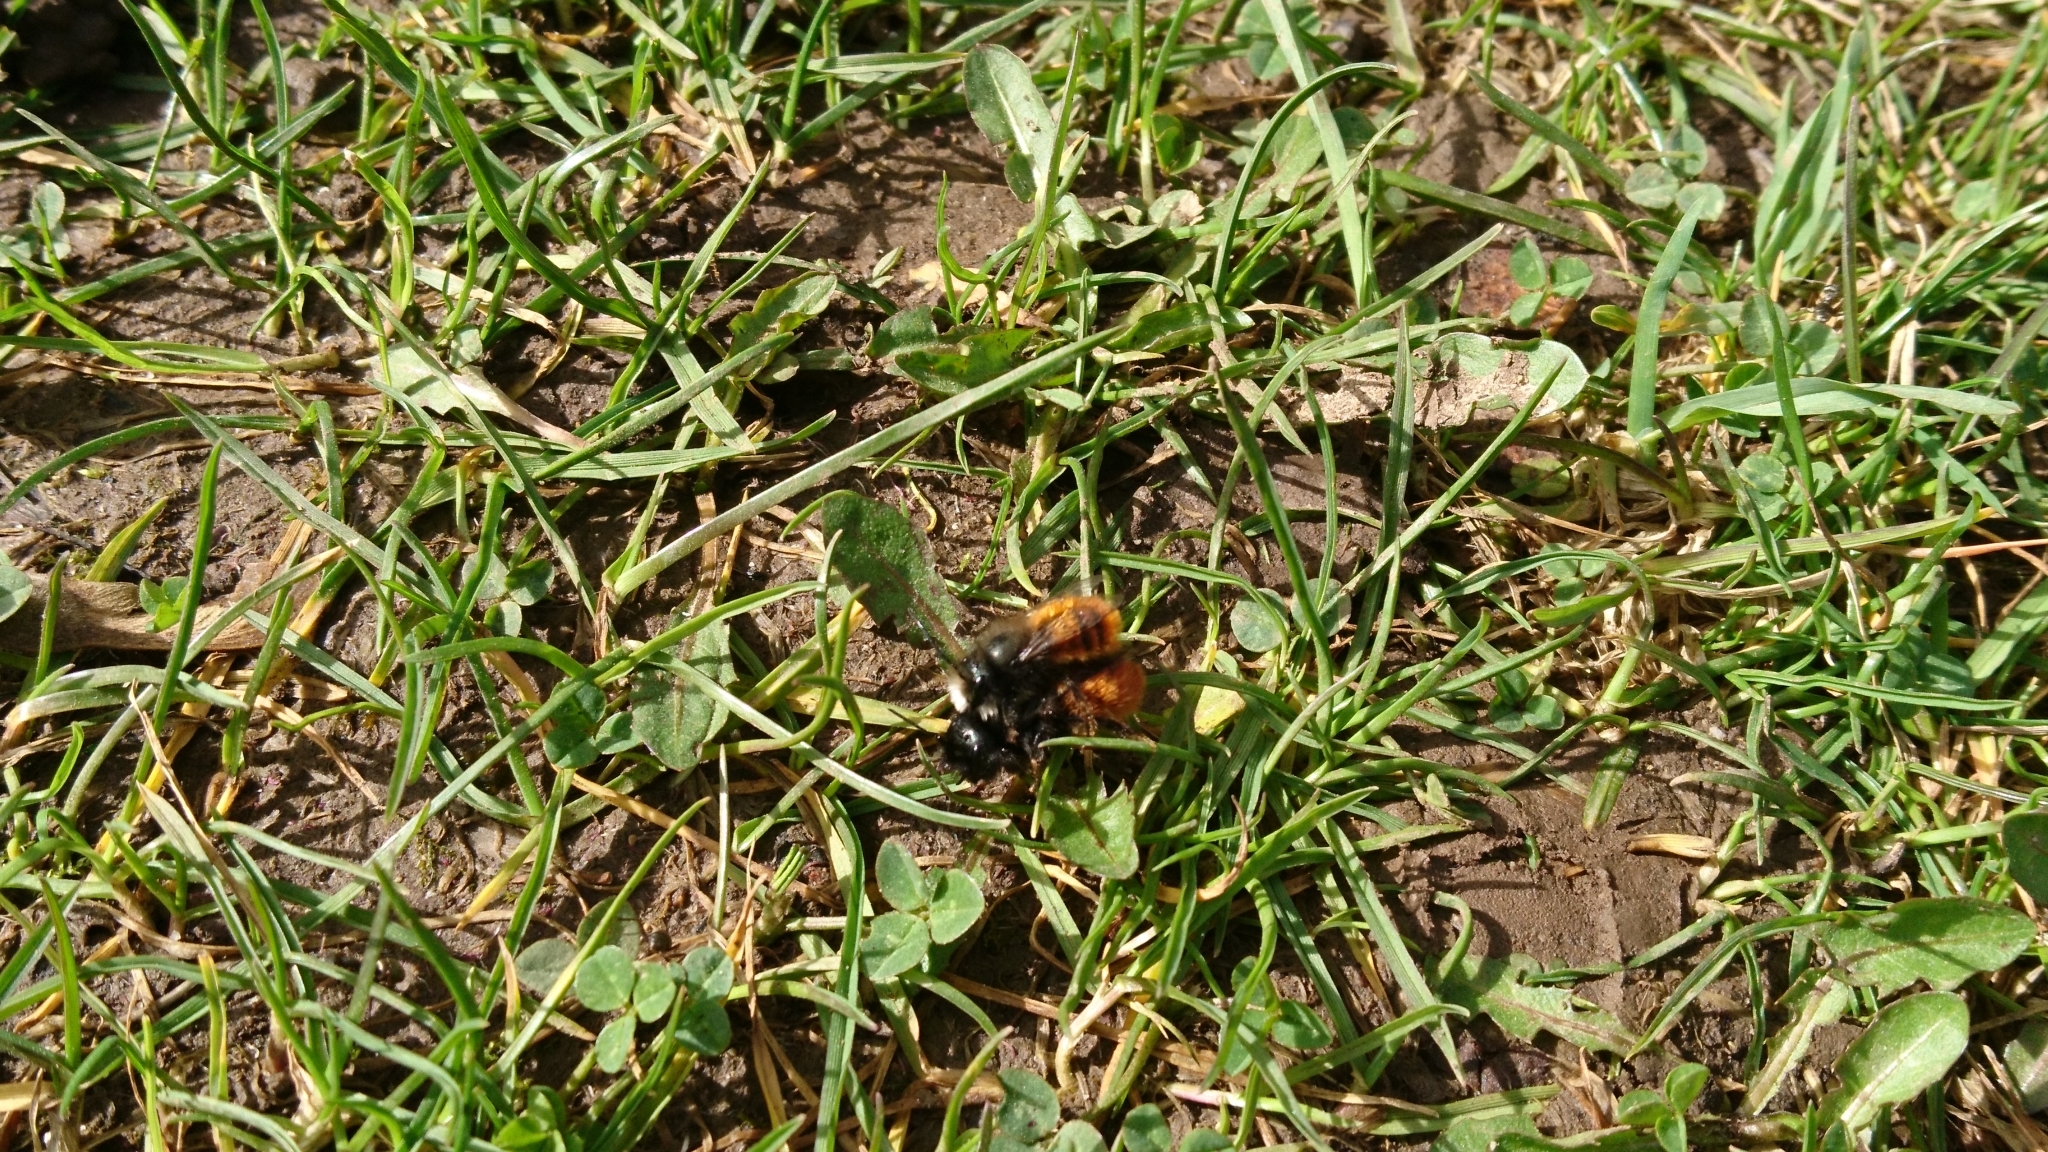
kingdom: Animalia
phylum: Arthropoda
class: Insecta
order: Hymenoptera
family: Megachilidae
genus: Osmia
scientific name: Osmia cornuta
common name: Mason bee
